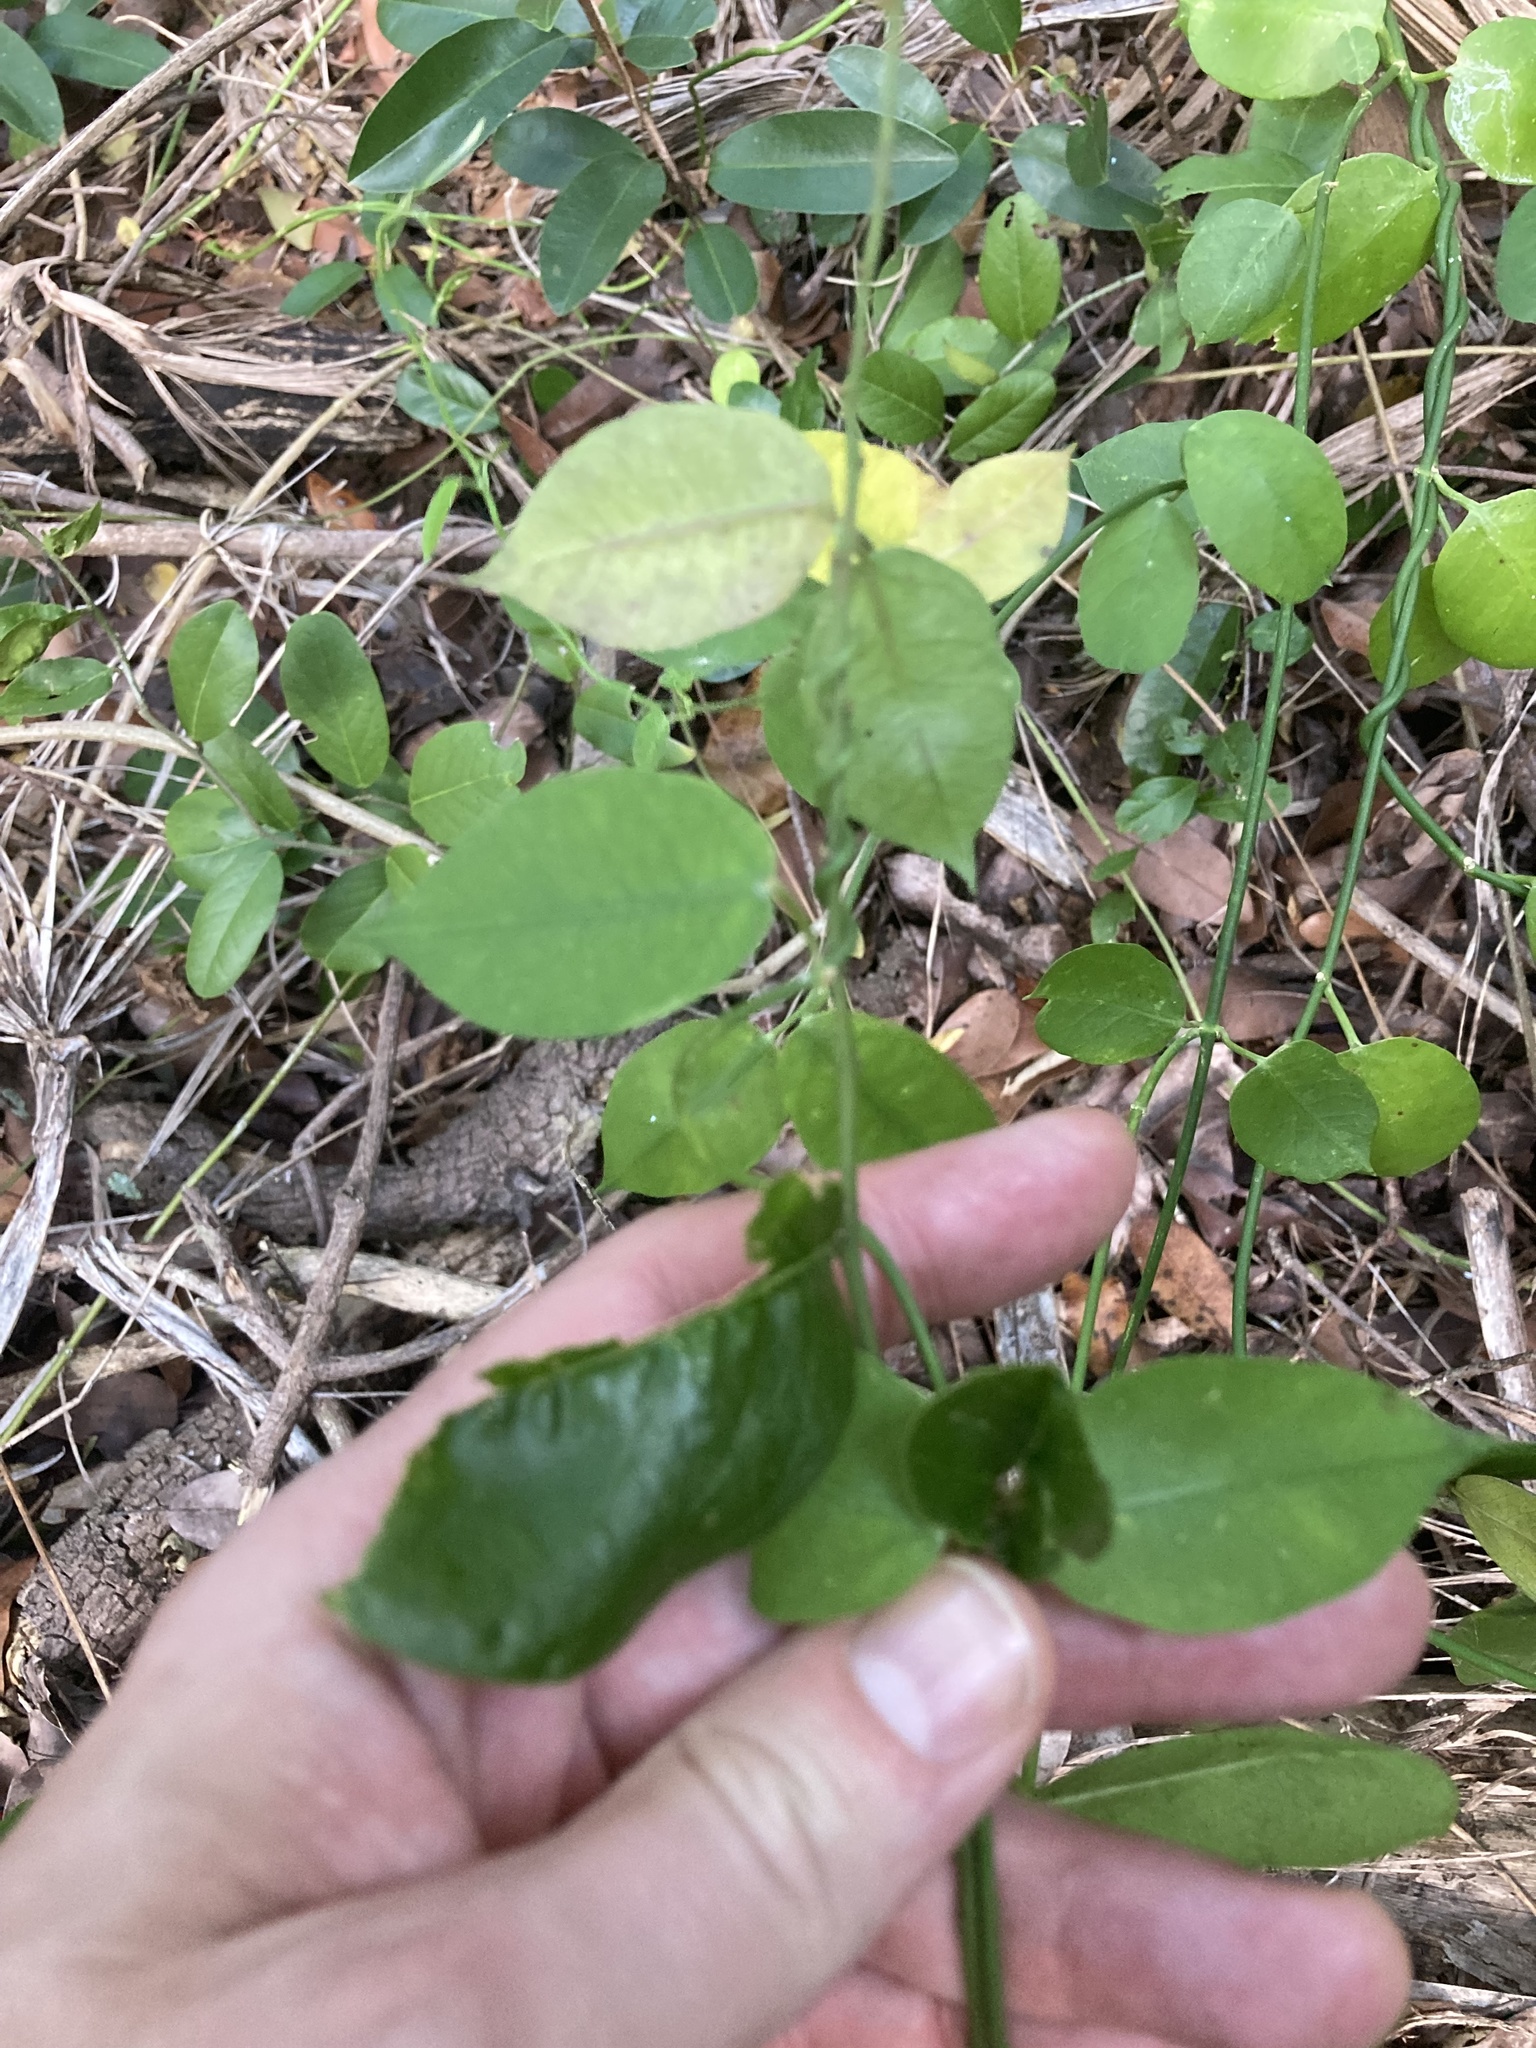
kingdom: Plantae
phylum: Tracheophyta
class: Magnoliopsida
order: Gentianales
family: Apocynaceae
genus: Funastrum
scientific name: Funastrum clausum
